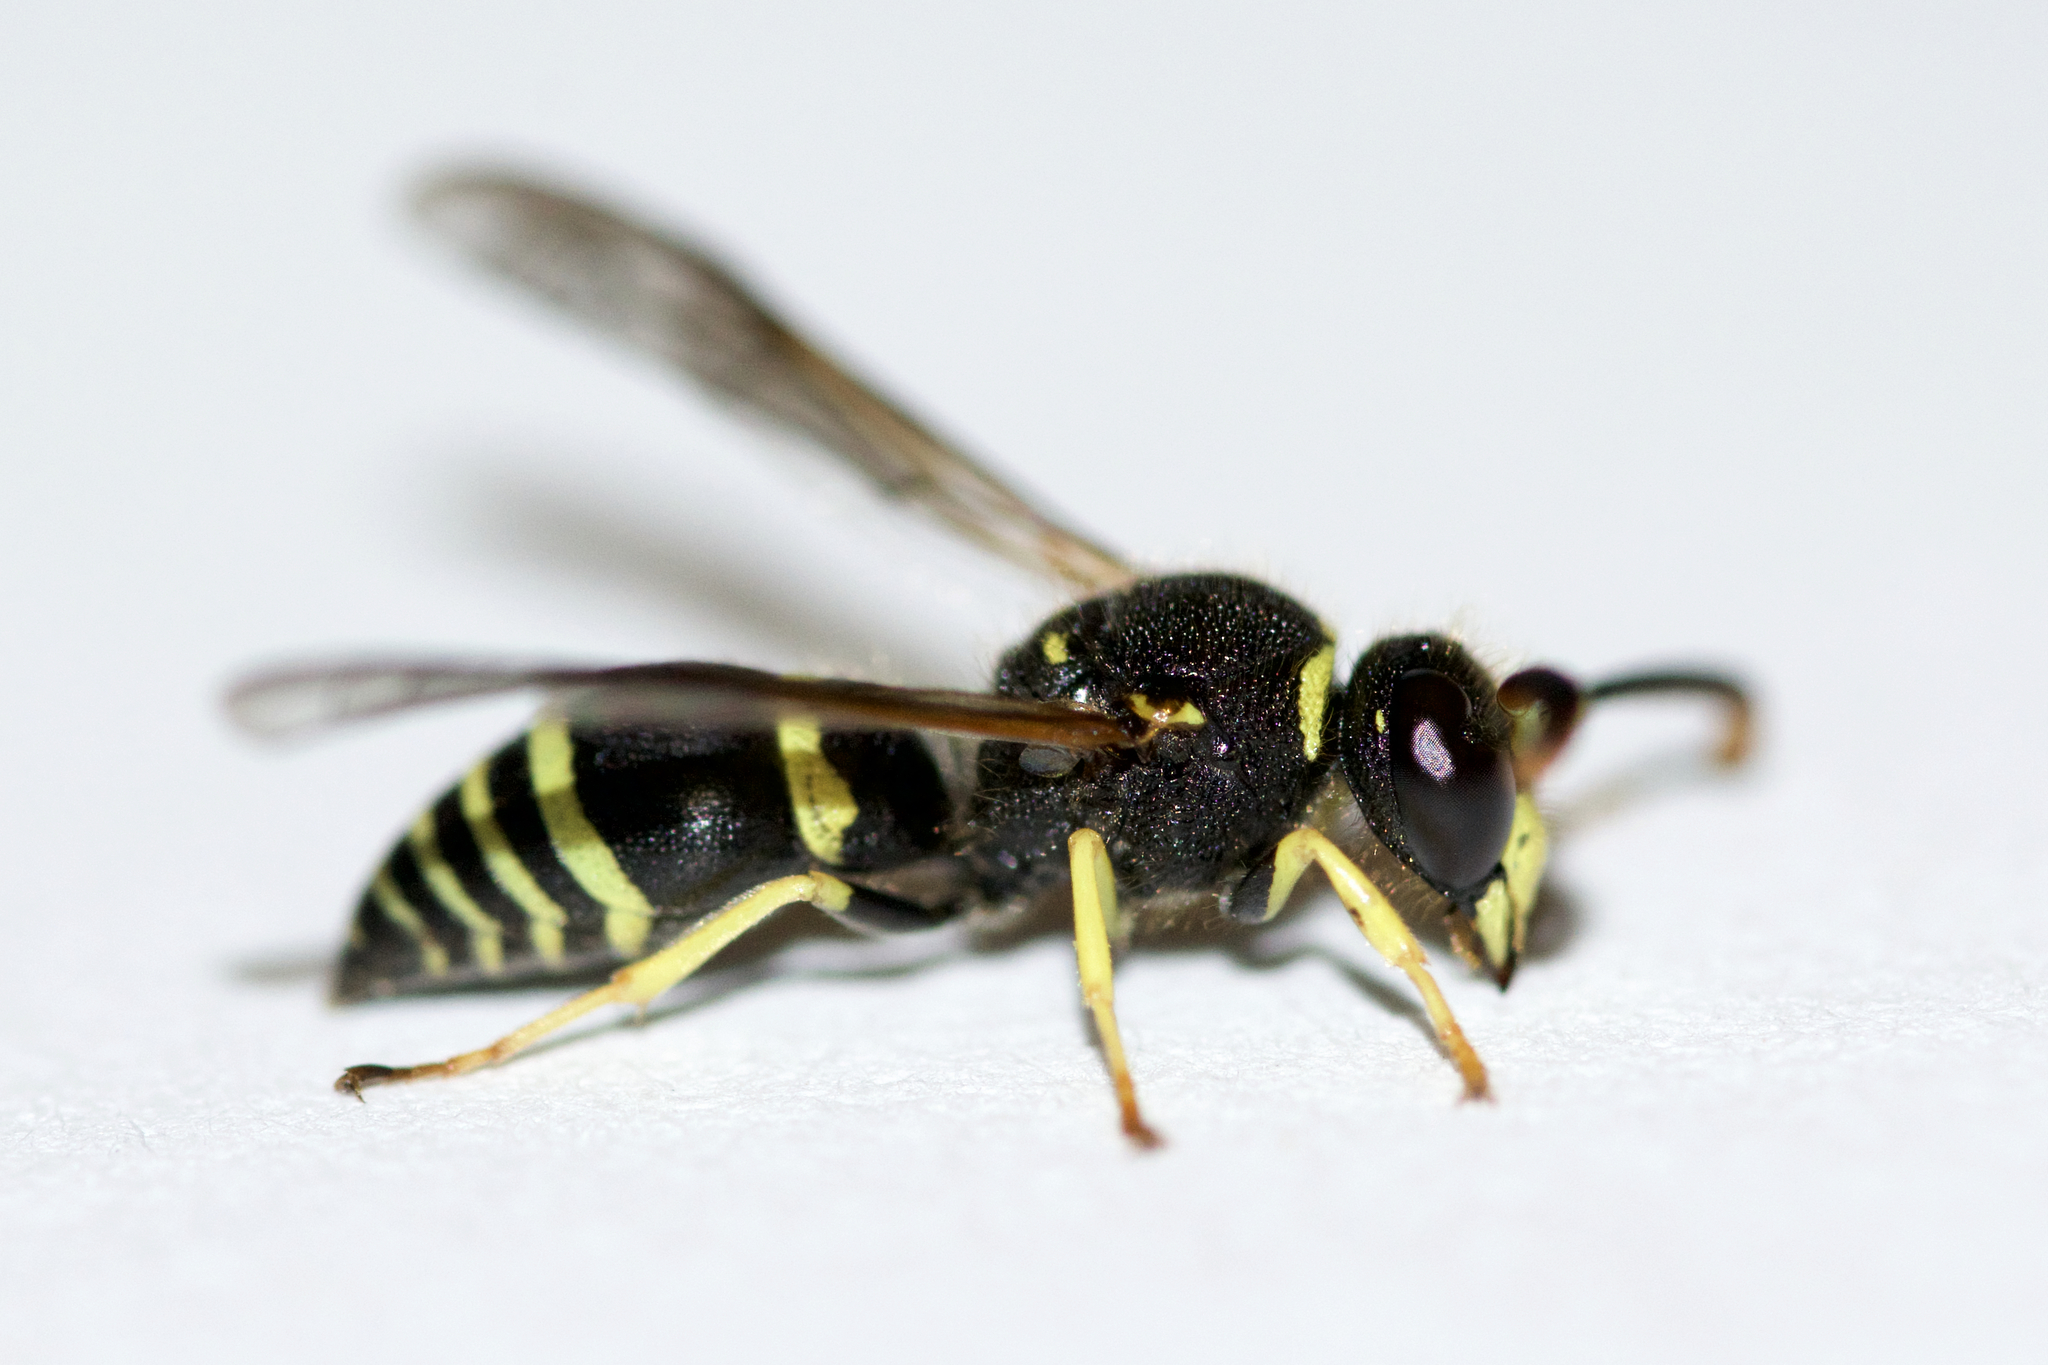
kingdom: Animalia
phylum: Arthropoda
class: Insecta
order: Hymenoptera
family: Vespidae
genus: Ancistrocerus
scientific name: Ancistrocerus
